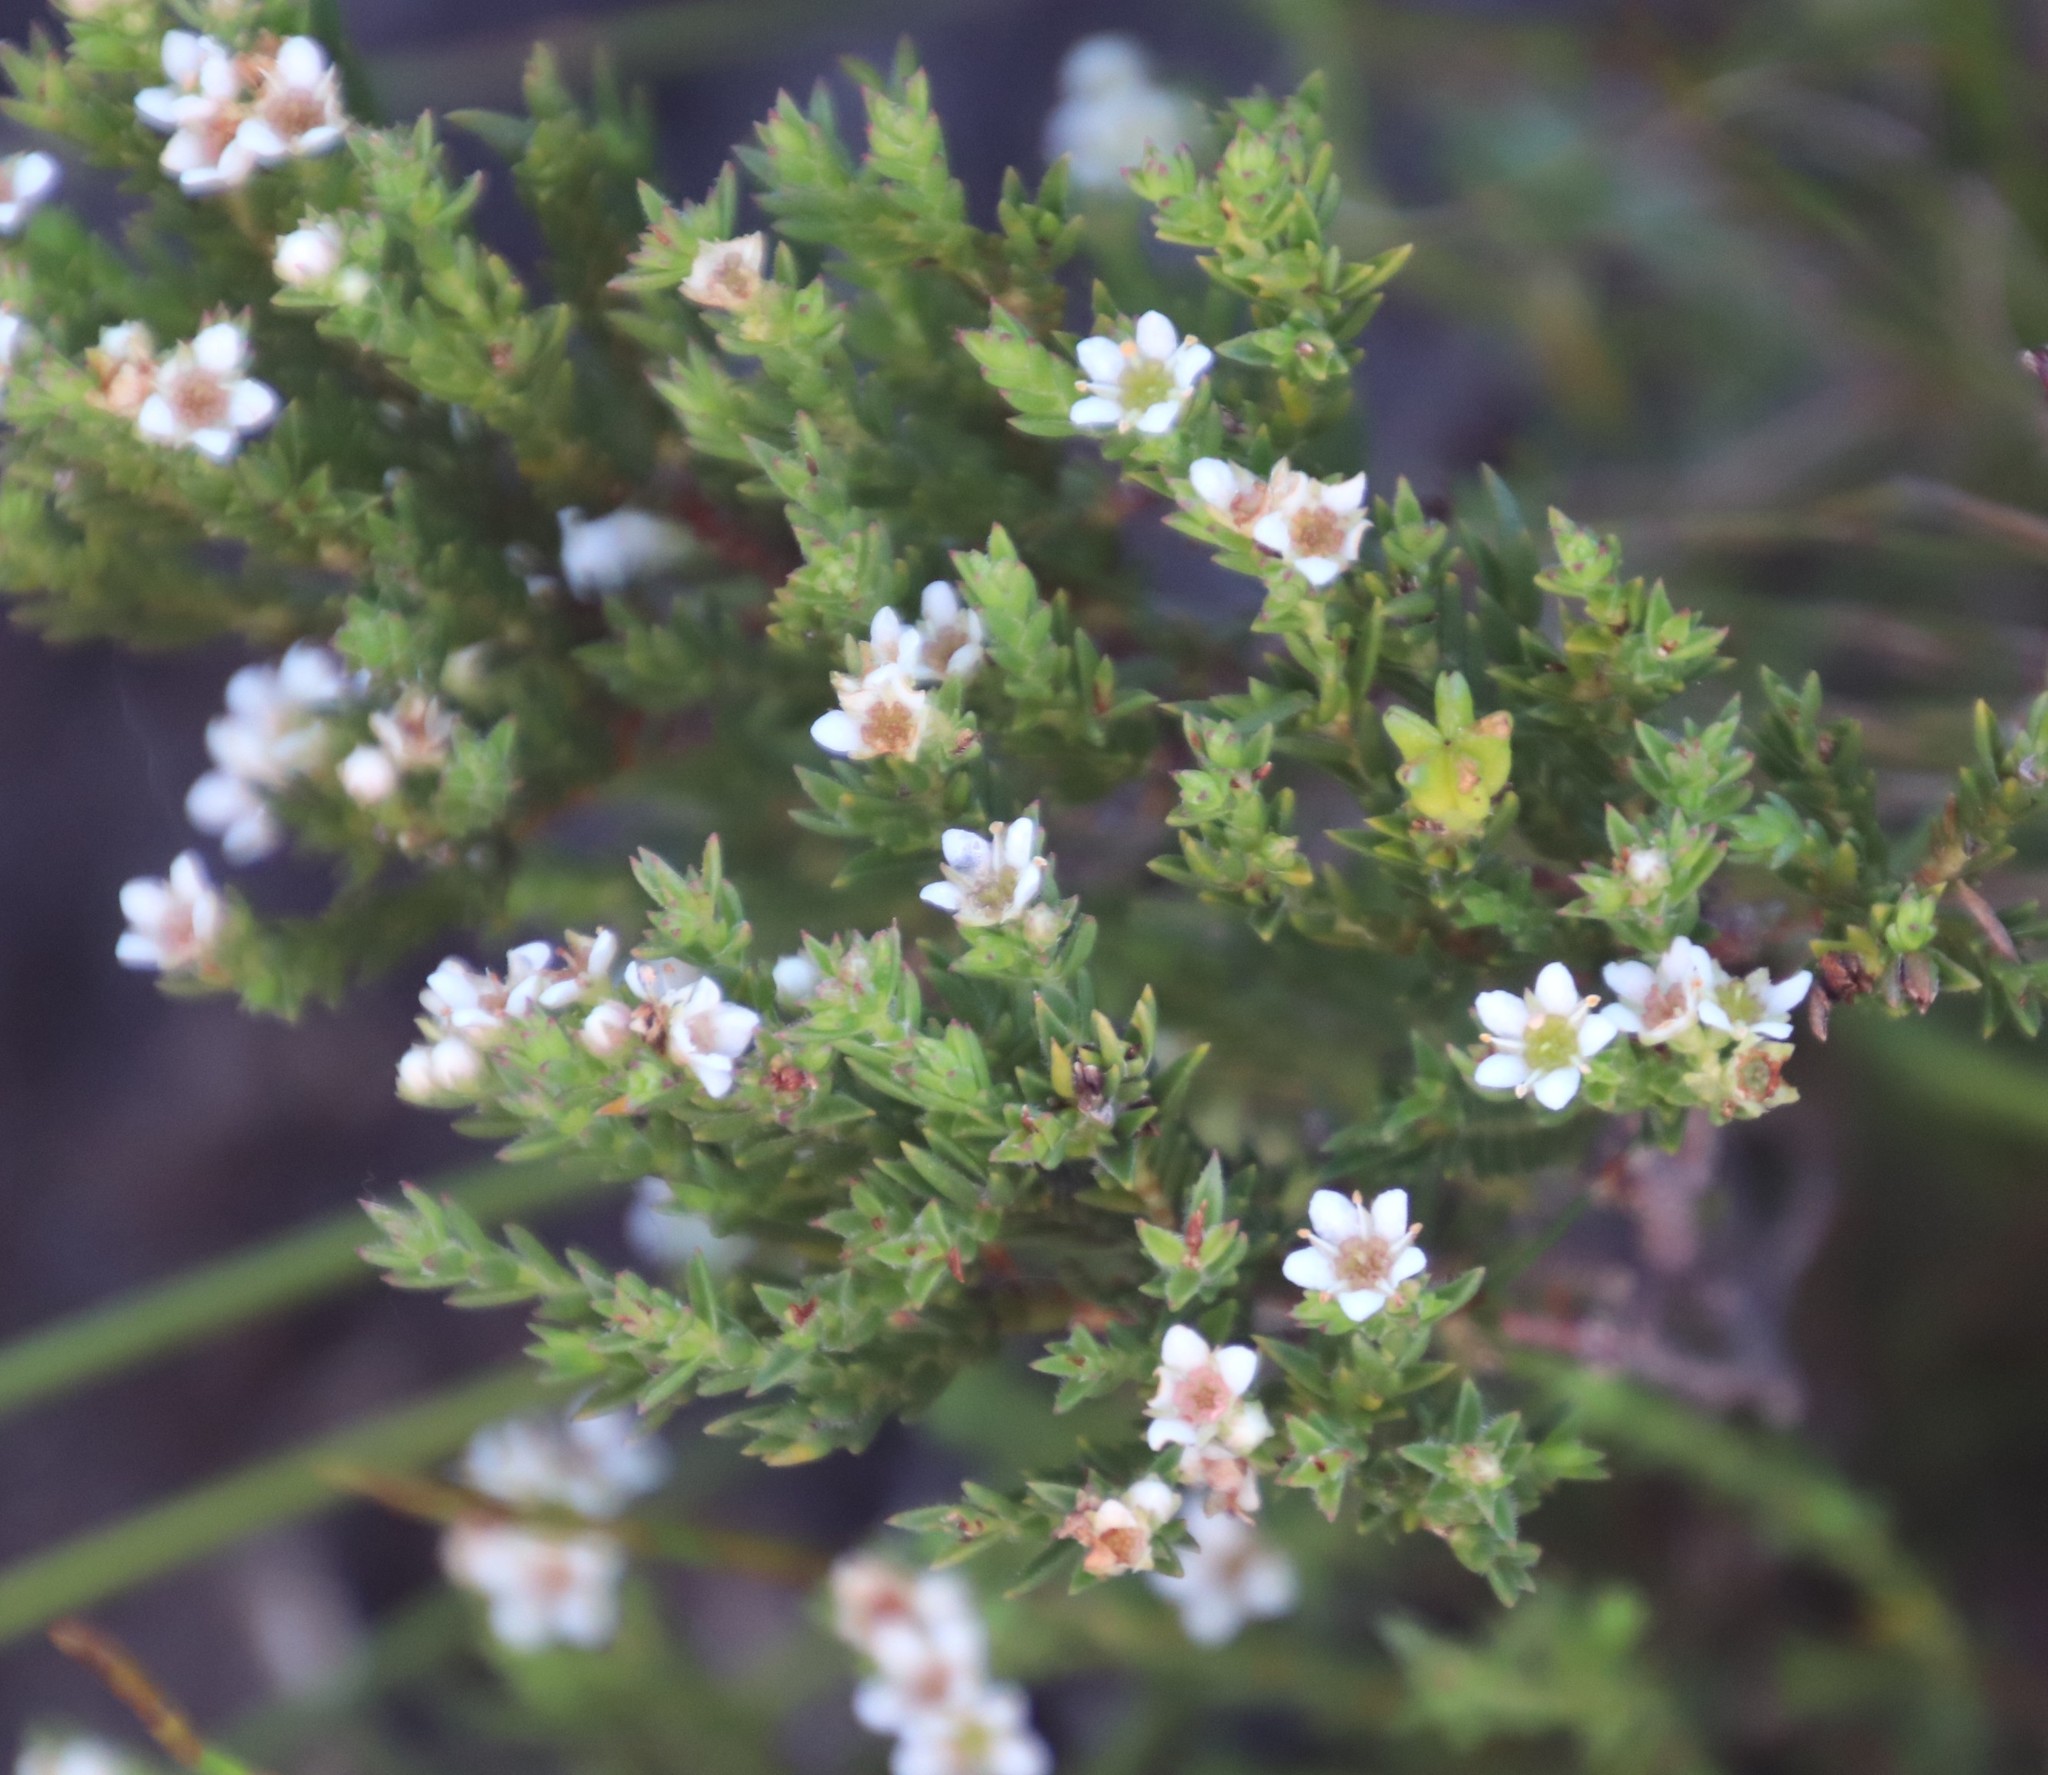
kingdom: Plantae
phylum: Tracheophyta
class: Magnoliopsida
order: Sapindales
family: Rutaceae
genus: Diosma
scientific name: Diosma oppositifolia
